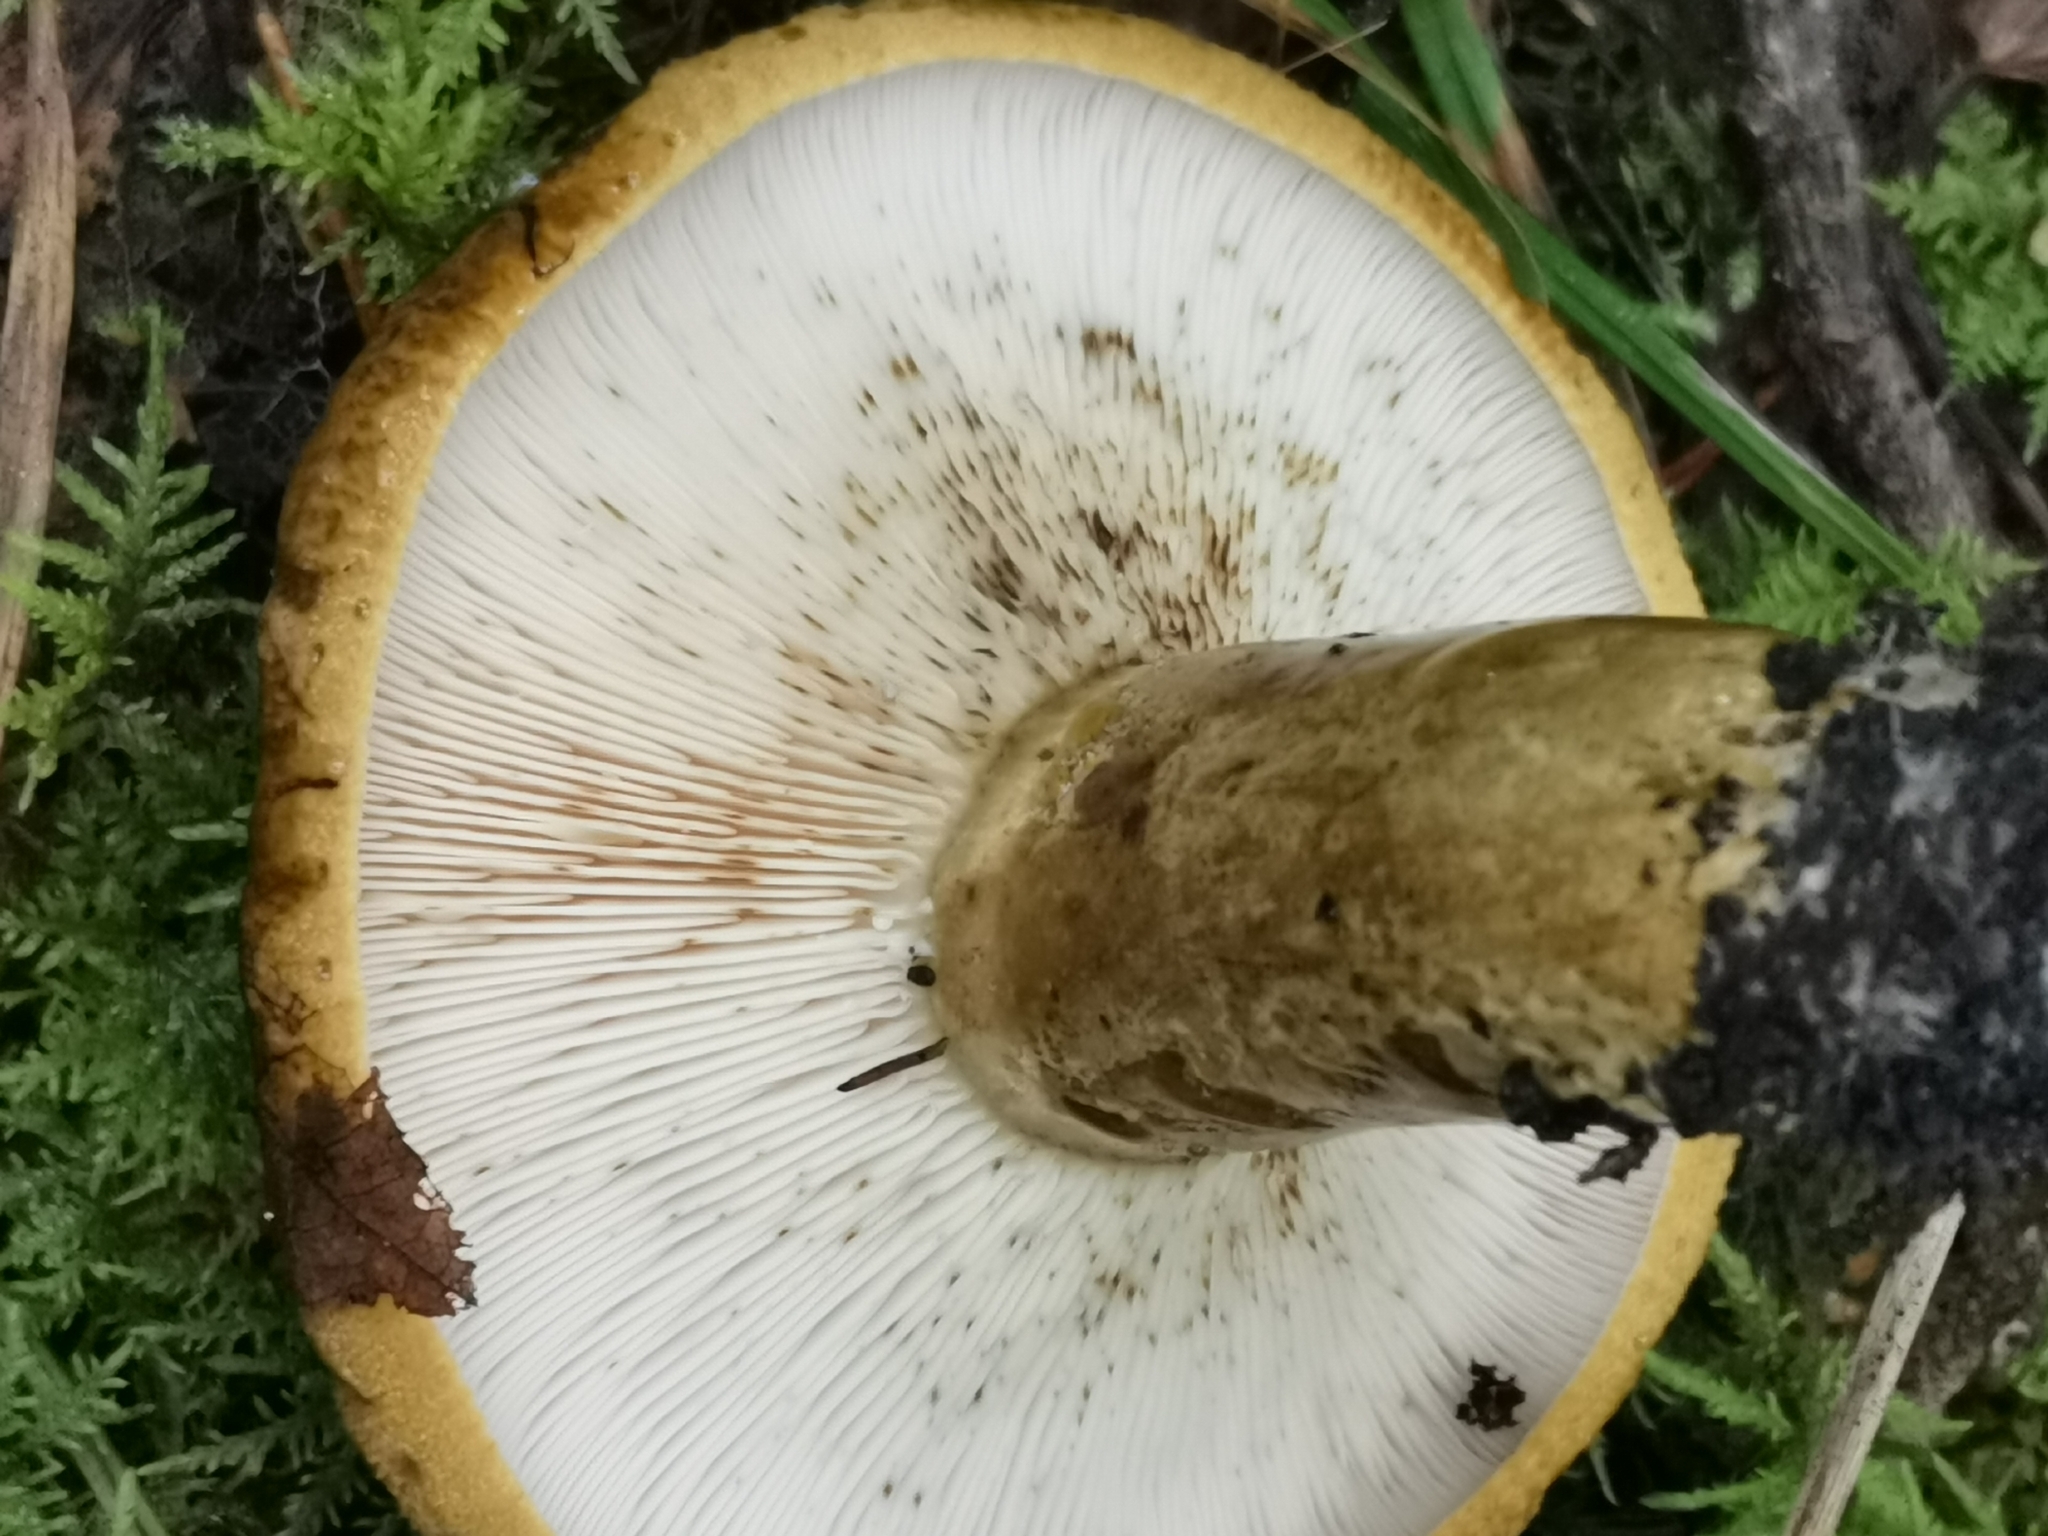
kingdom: Fungi
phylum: Basidiomycota
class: Agaricomycetes
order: Russulales
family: Russulaceae
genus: Lactarius
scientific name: Lactarius turpis
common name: Ugly milk-cap
